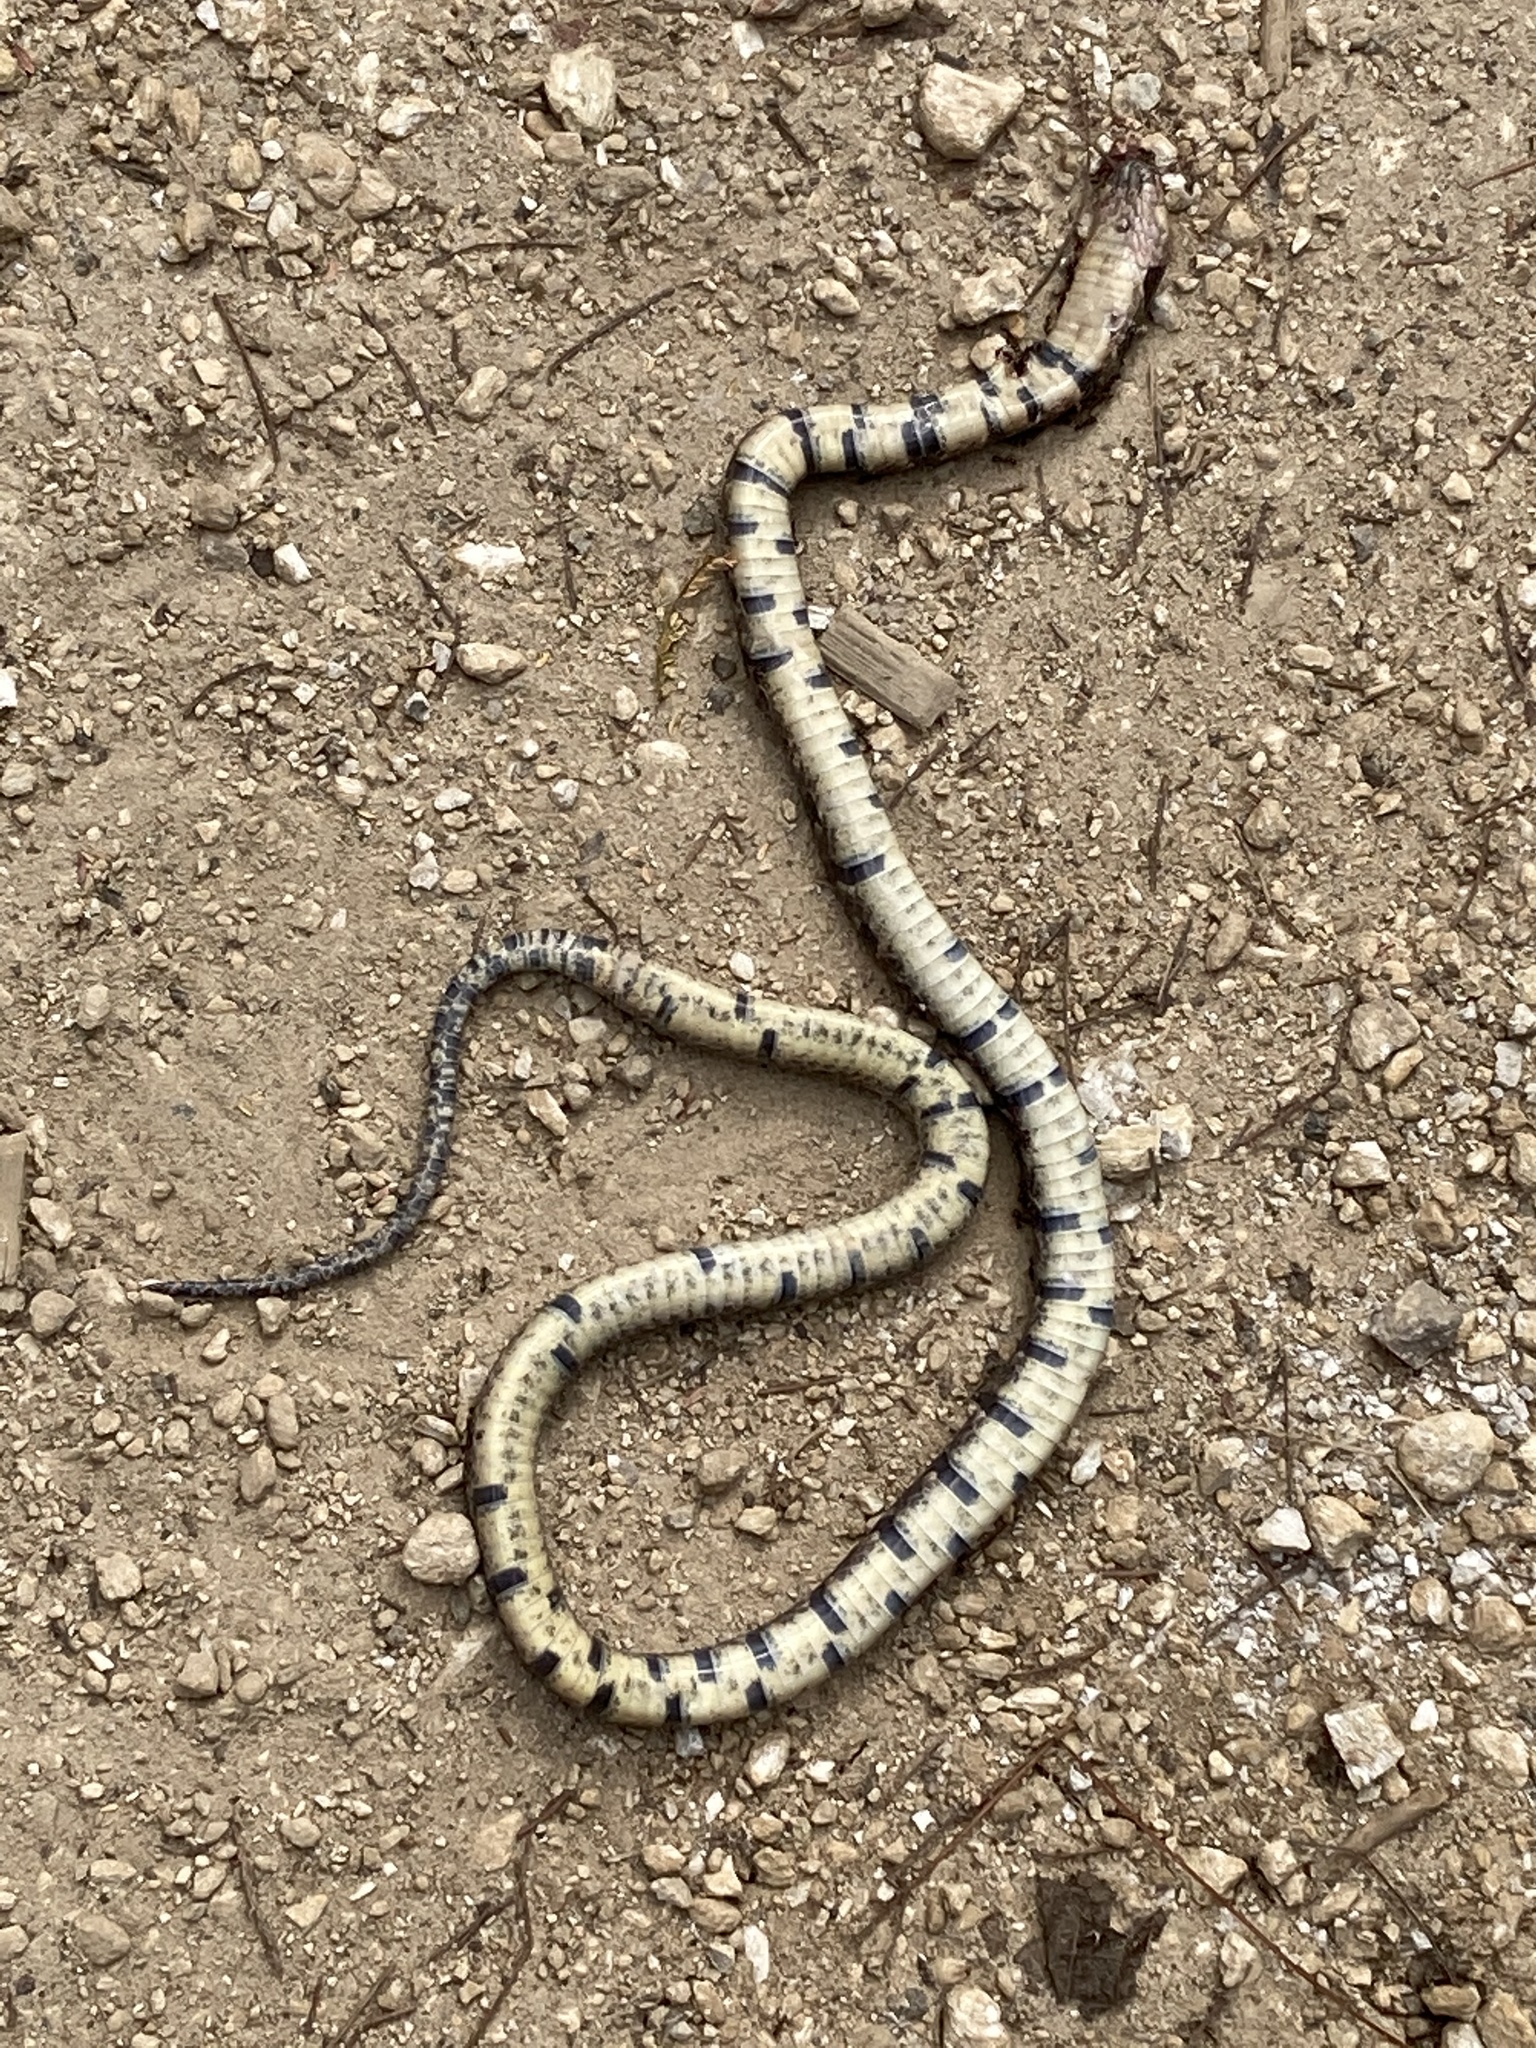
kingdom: Animalia
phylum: Chordata
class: Squamata
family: Colubridae
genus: Tropidodipsas
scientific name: Tropidodipsas fischeri
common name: Fischer’s snail-eating snake
